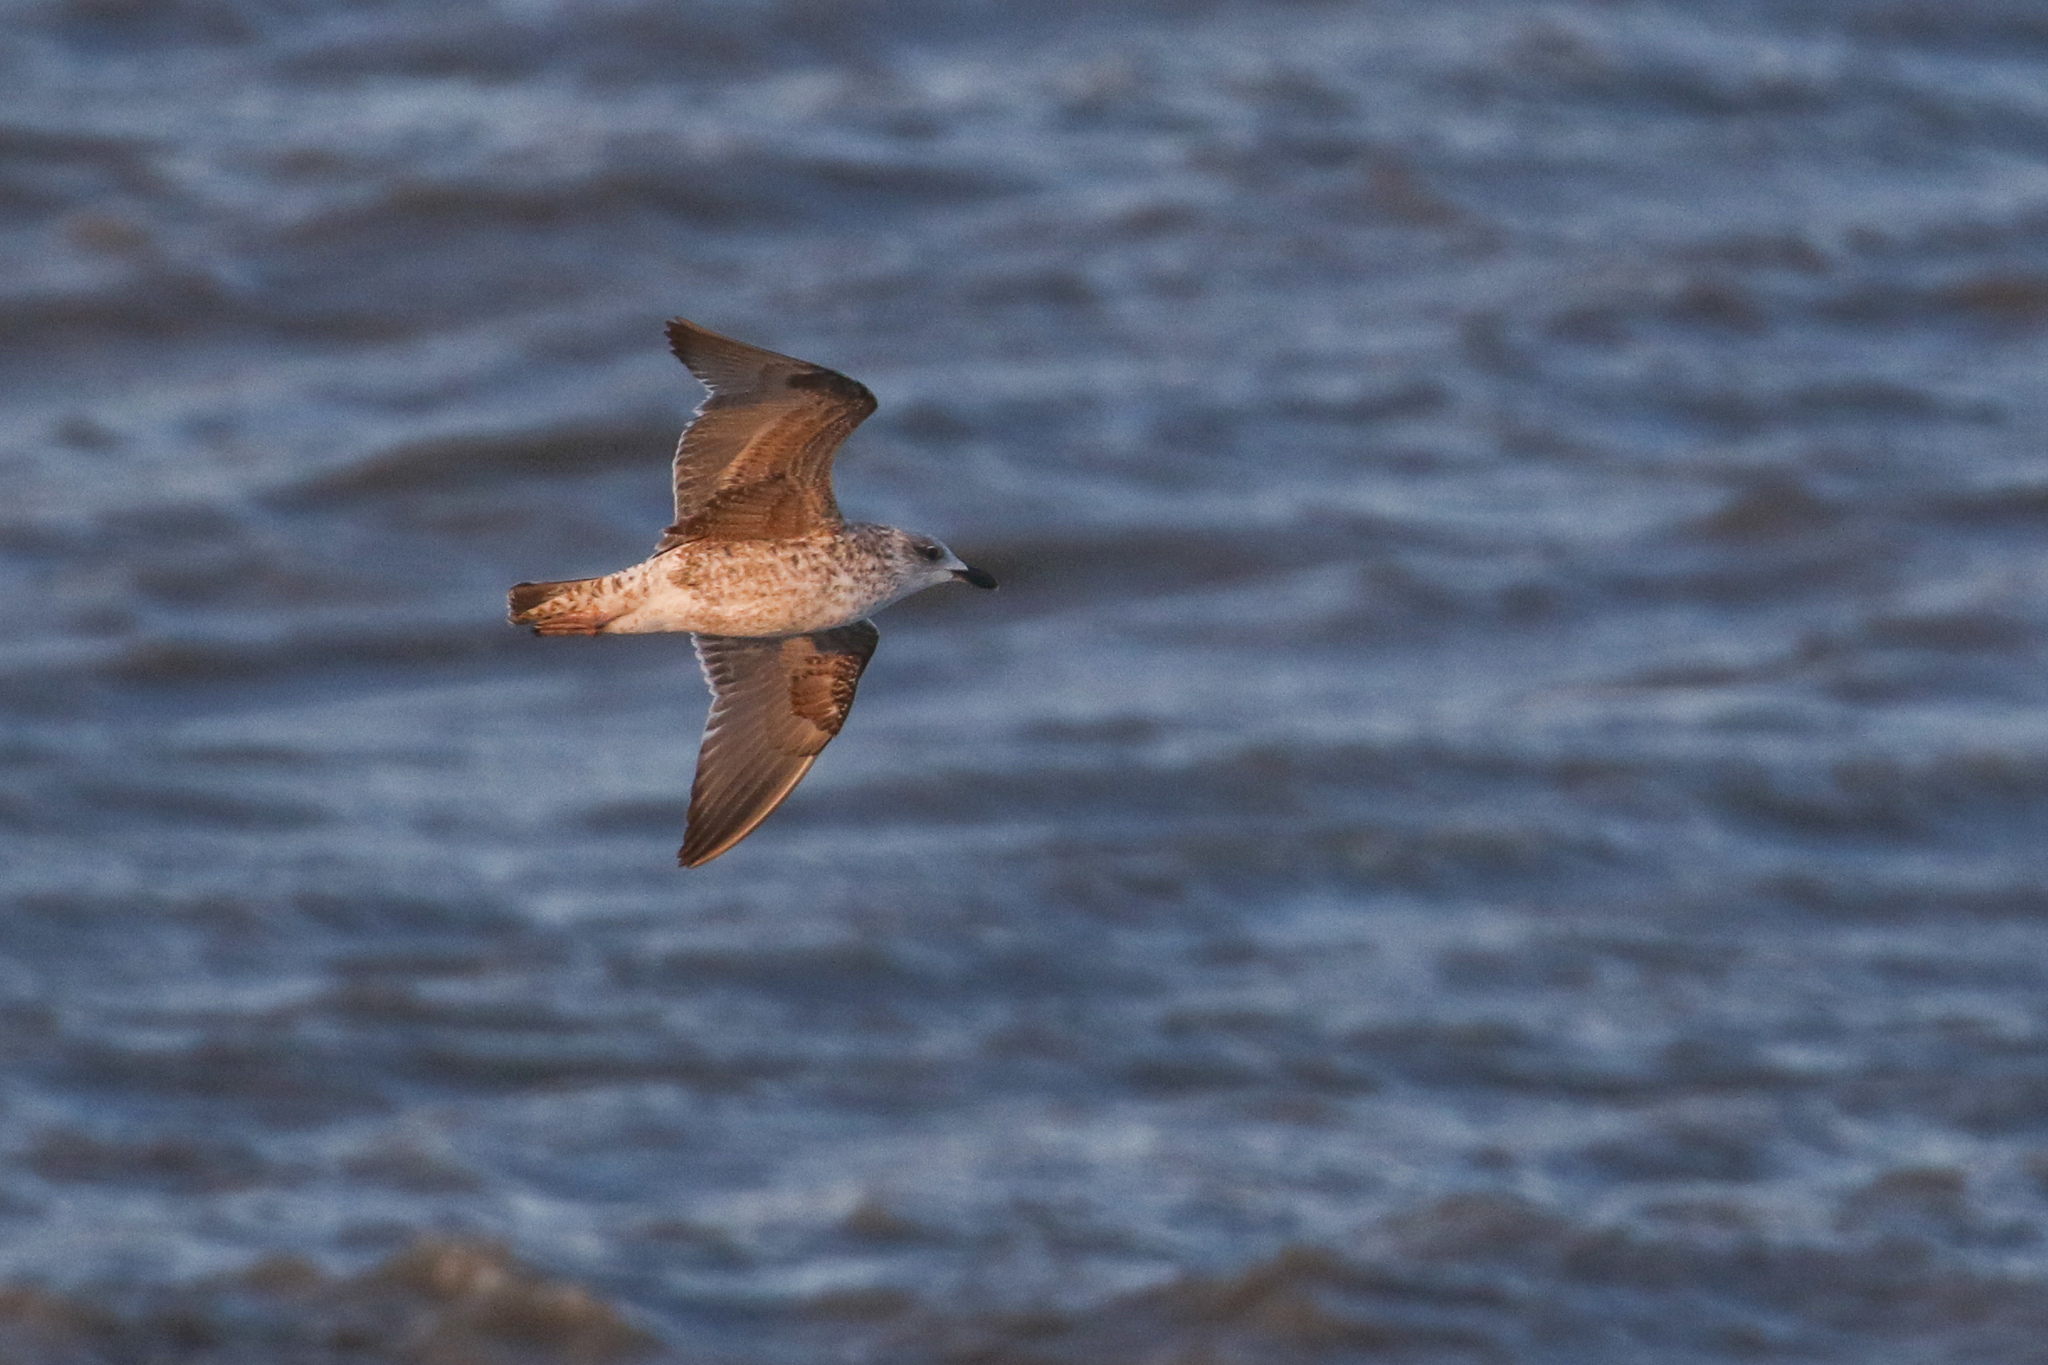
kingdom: Animalia
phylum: Chordata
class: Aves
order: Charadriiformes
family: Laridae
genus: Larus
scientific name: Larus fuscus
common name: Lesser black-backed gull
